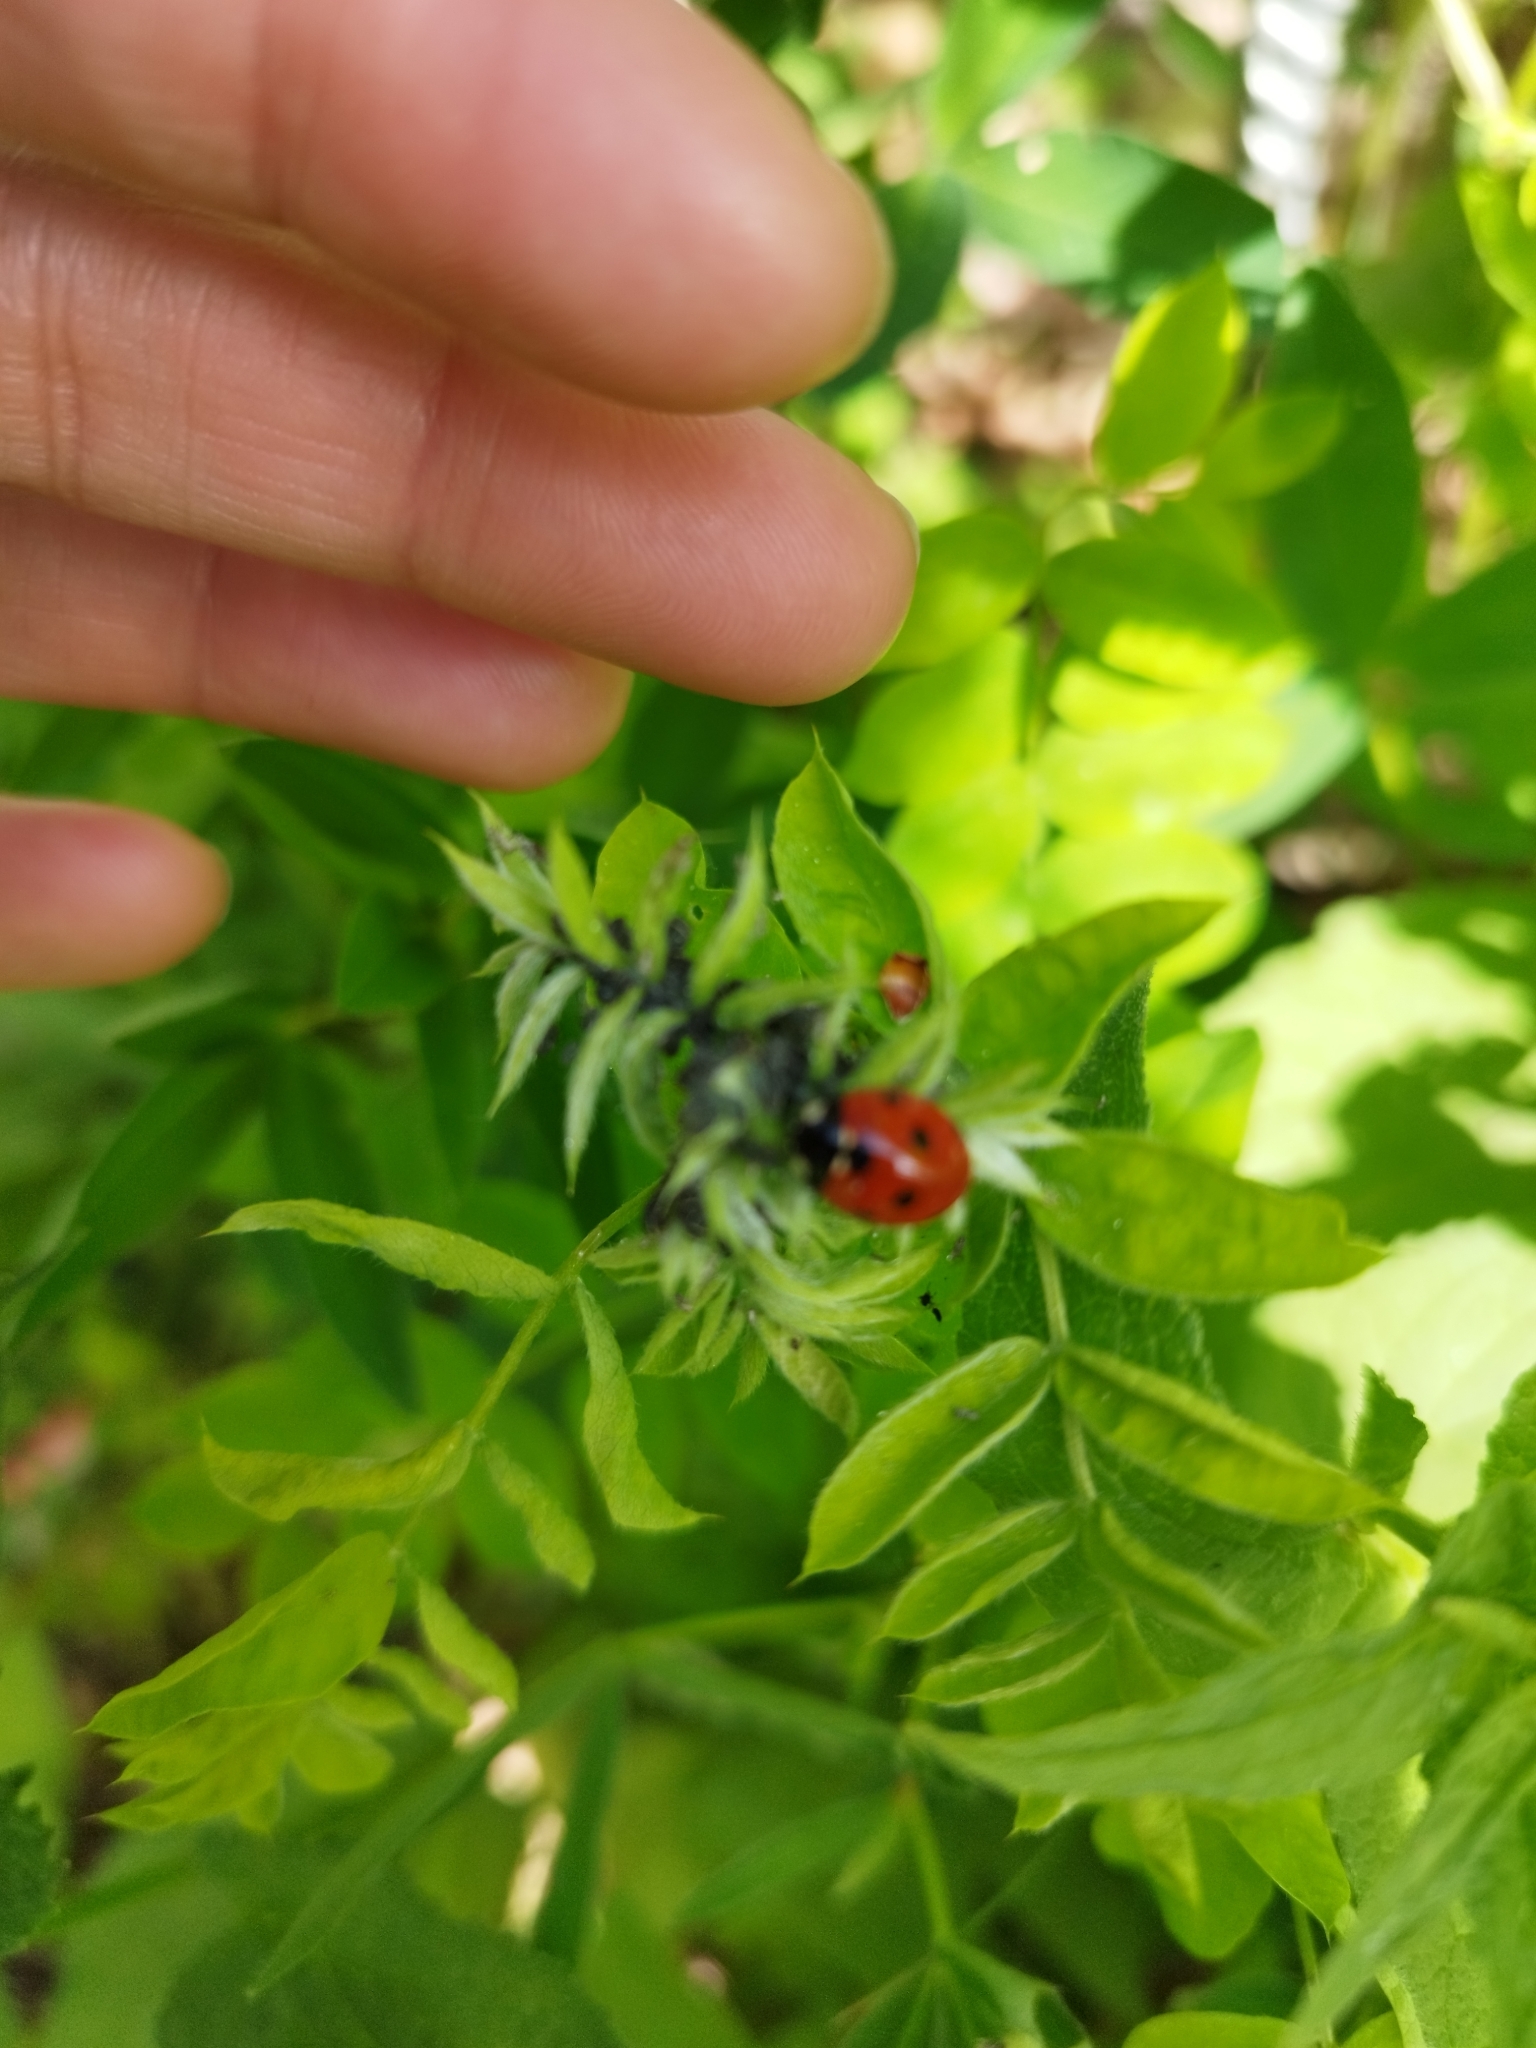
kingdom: Animalia
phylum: Arthropoda
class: Insecta
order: Coleoptera
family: Coccinellidae
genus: Coccinella
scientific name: Coccinella septempunctata
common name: Sevenspotted lady beetle
